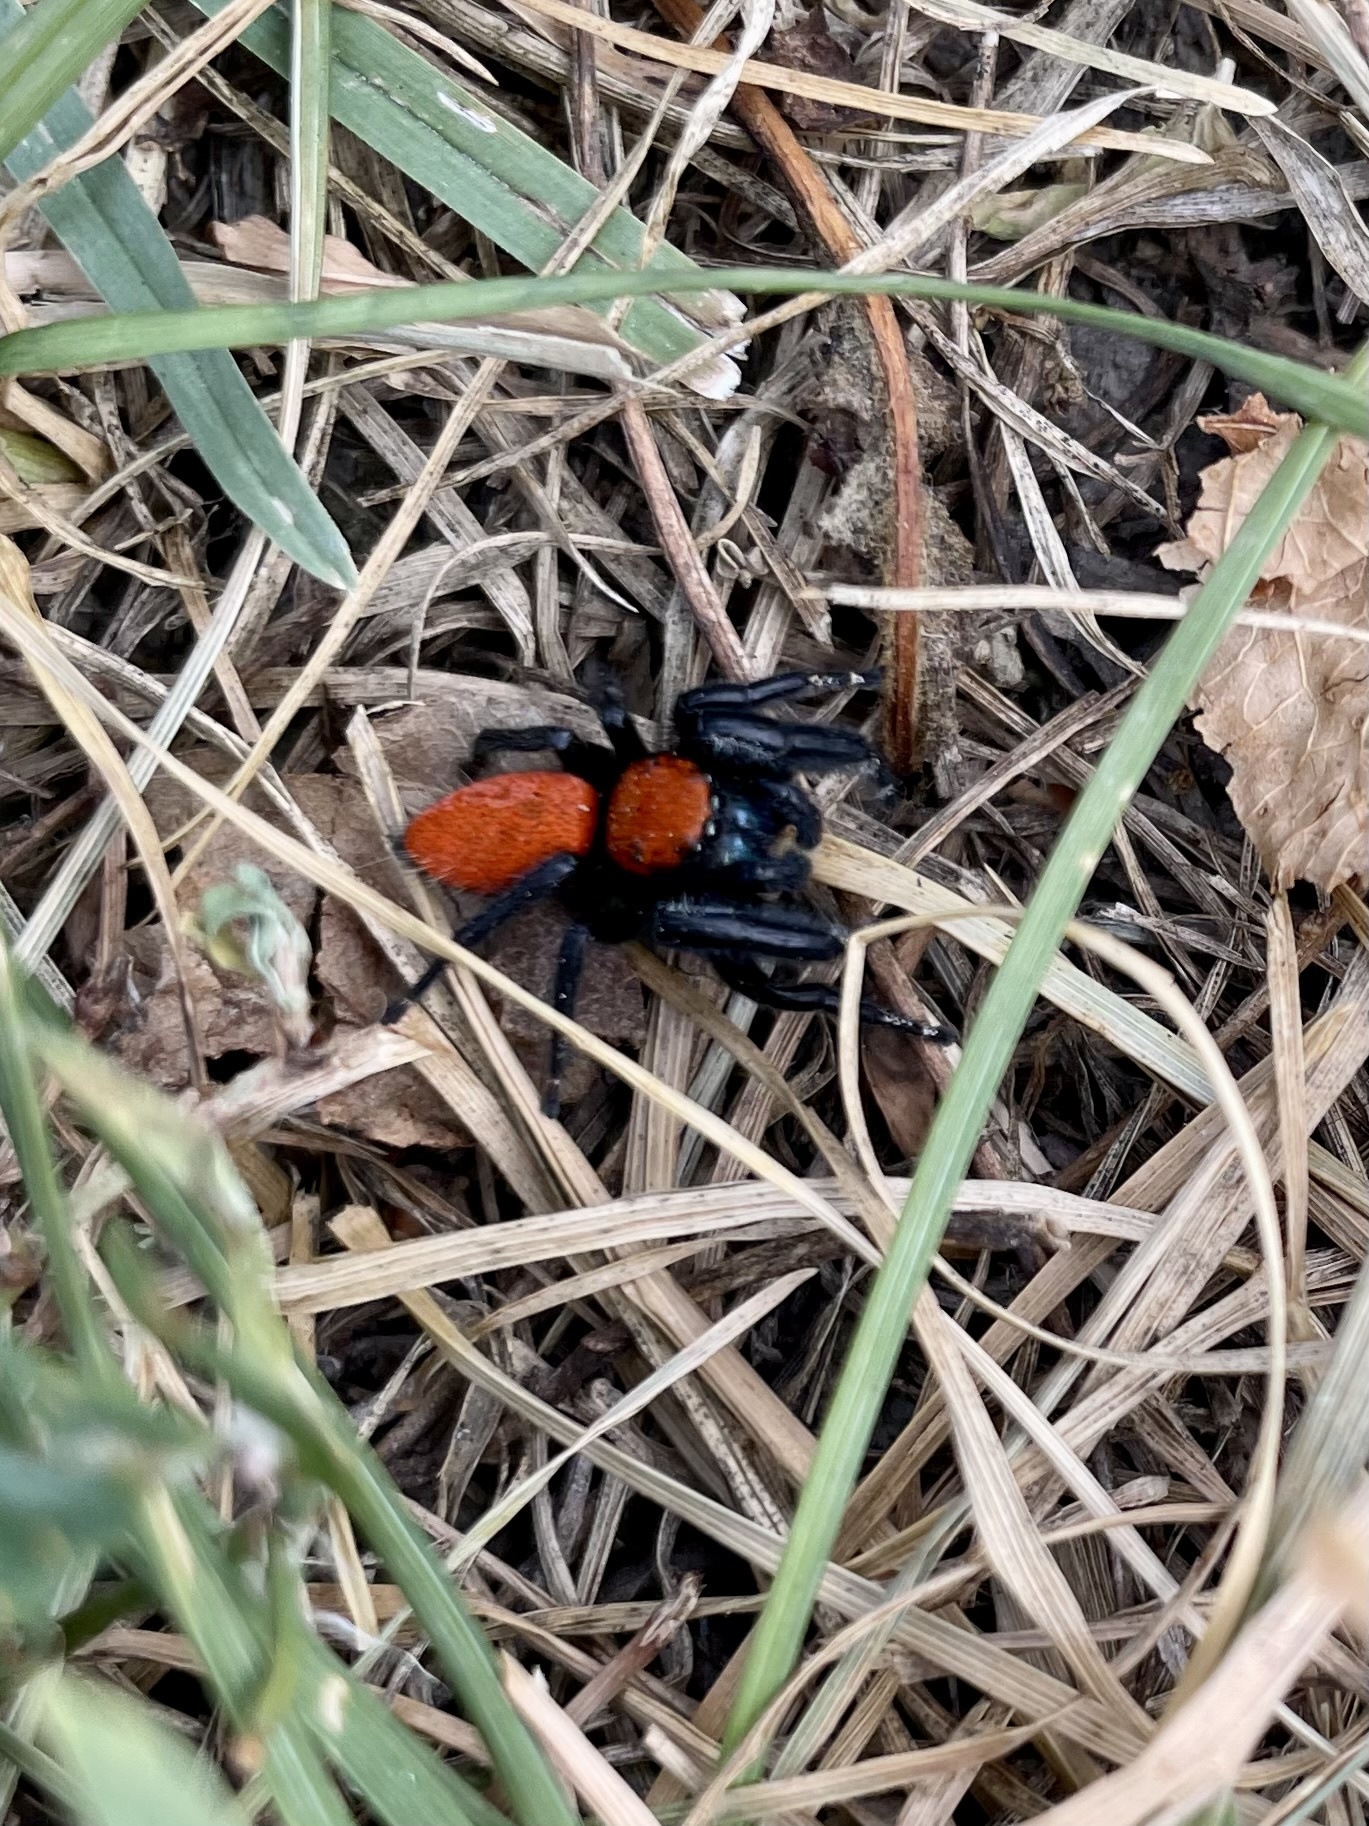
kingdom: Animalia
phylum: Arthropoda
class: Arachnida
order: Araneae
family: Salticidae
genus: Phidippus
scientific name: Phidippus apacheanus
